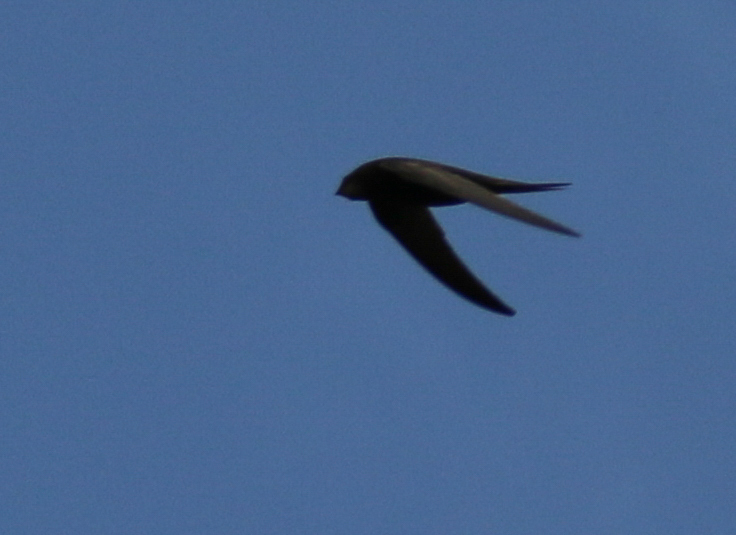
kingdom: Animalia
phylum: Chordata
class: Aves
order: Apodiformes
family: Apodidae
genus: Apus
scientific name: Apus apus
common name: Common swift
